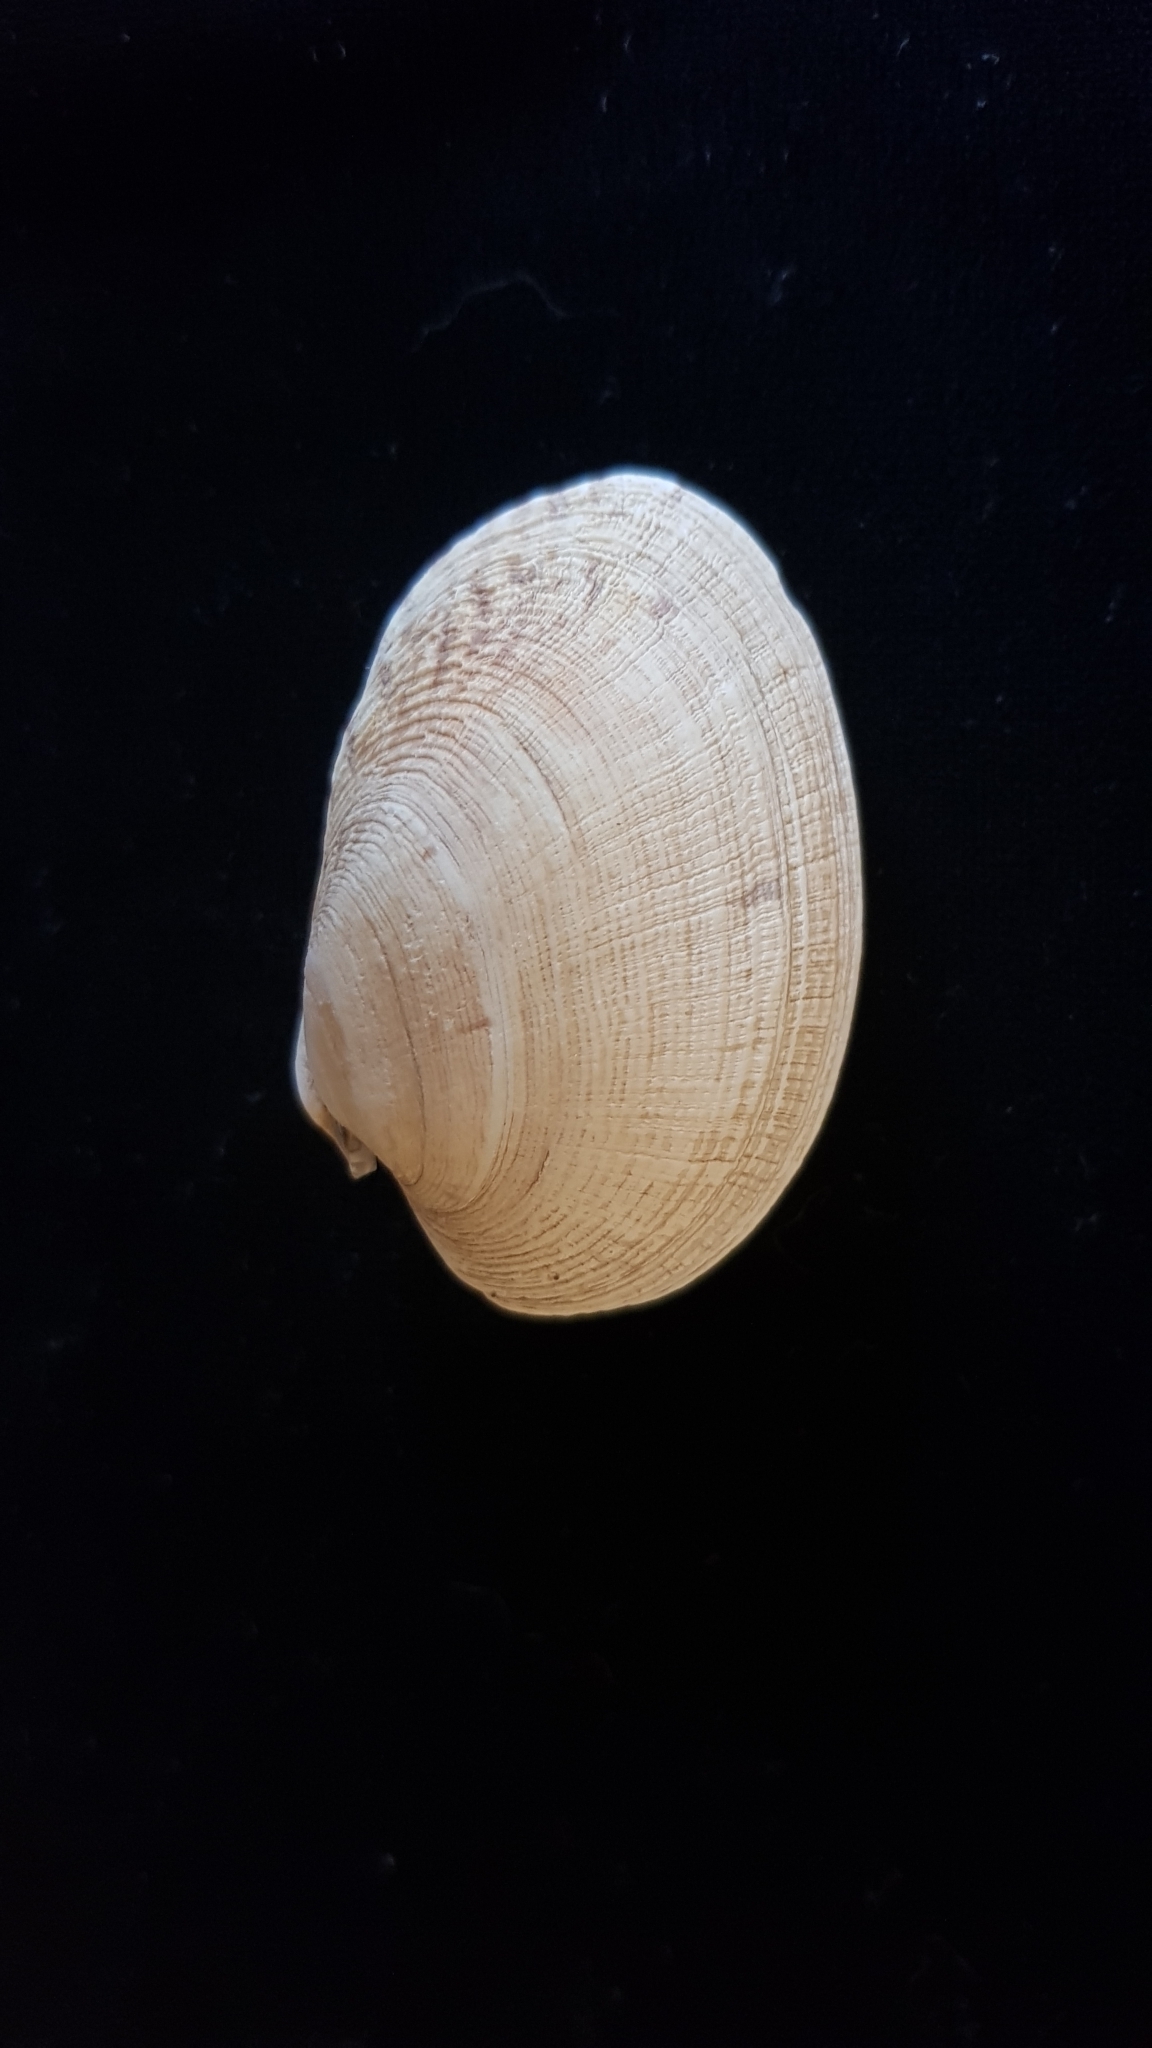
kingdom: Animalia
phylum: Mollusca
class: Bivalvia
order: Venerida
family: Veneridae
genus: Venerupis
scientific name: Venerupis corrugata
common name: Pullet carpet shell
